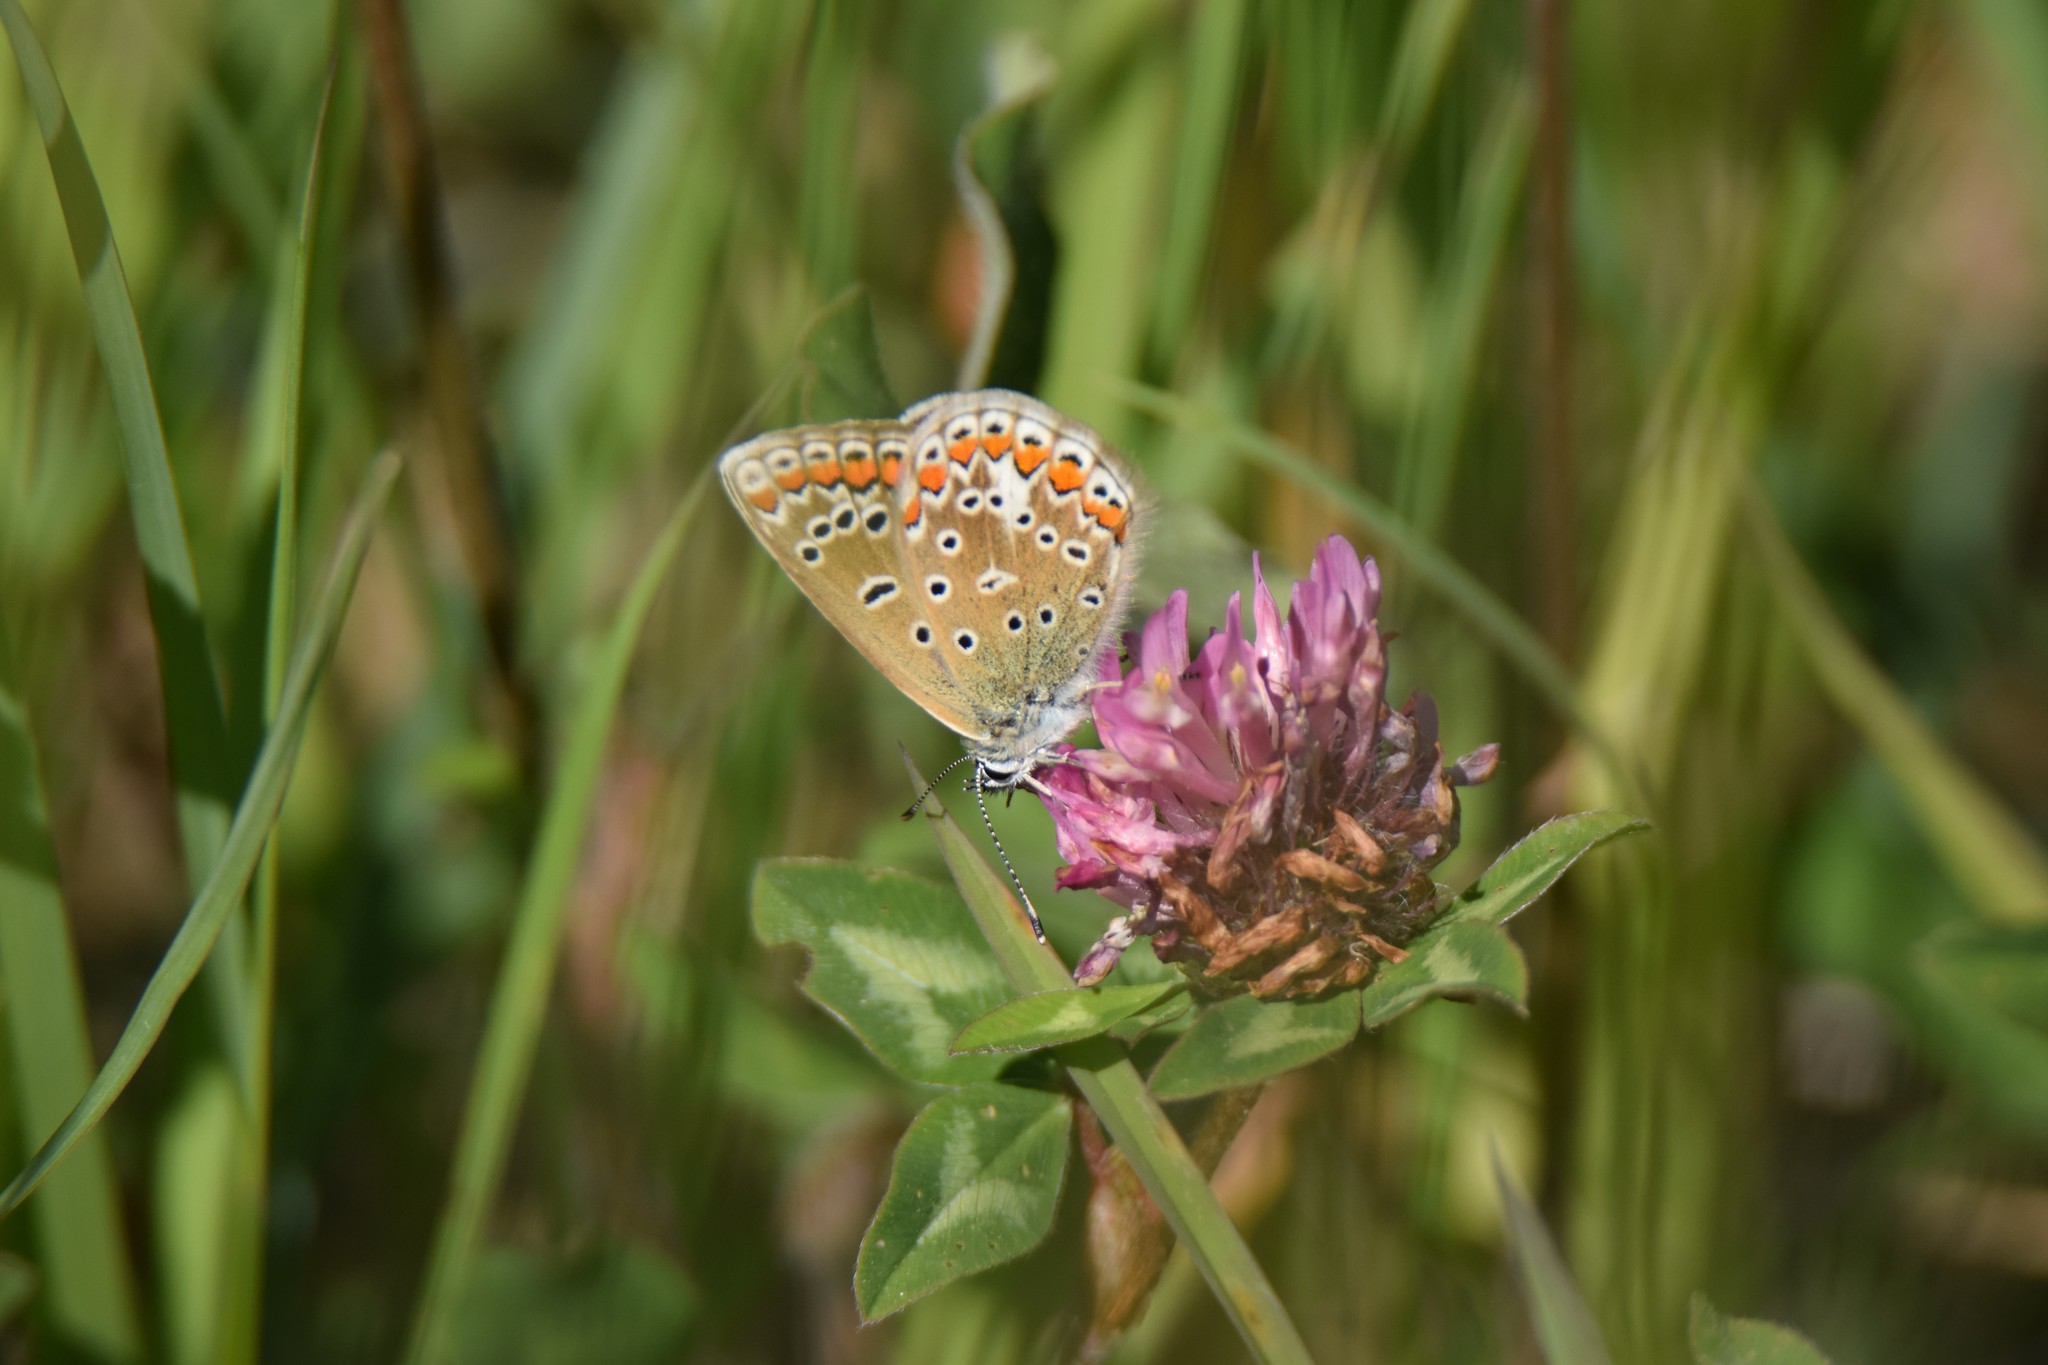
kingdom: Animalia
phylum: Arthropoda
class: Insecta
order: Lepidoptera
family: Lycaenidae
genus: Polyommatus
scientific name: Polyommatus icarus
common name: Common blue
